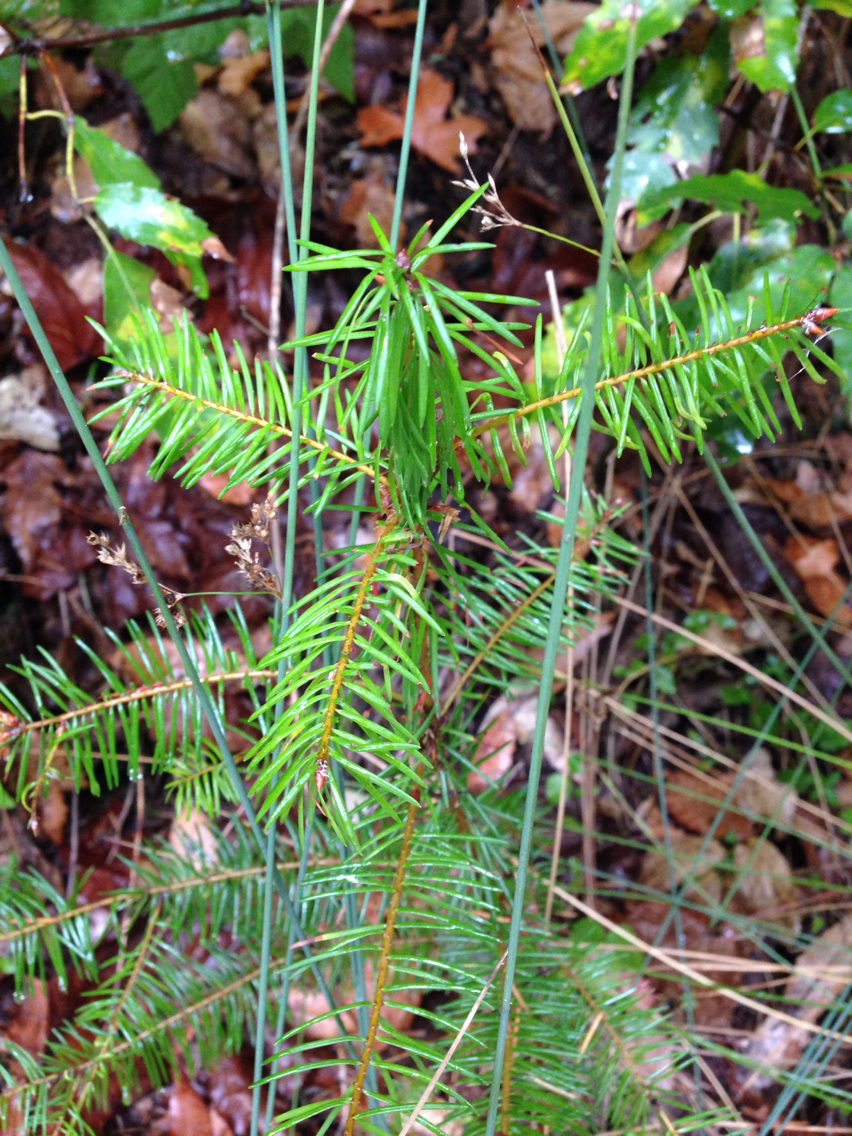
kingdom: Plantae
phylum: Tracheophyta
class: Pinopsida
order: Pinales
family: Pinaceae
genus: Pseudotsuga
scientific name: Pseudotsuga menziesii
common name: Douglas fir
